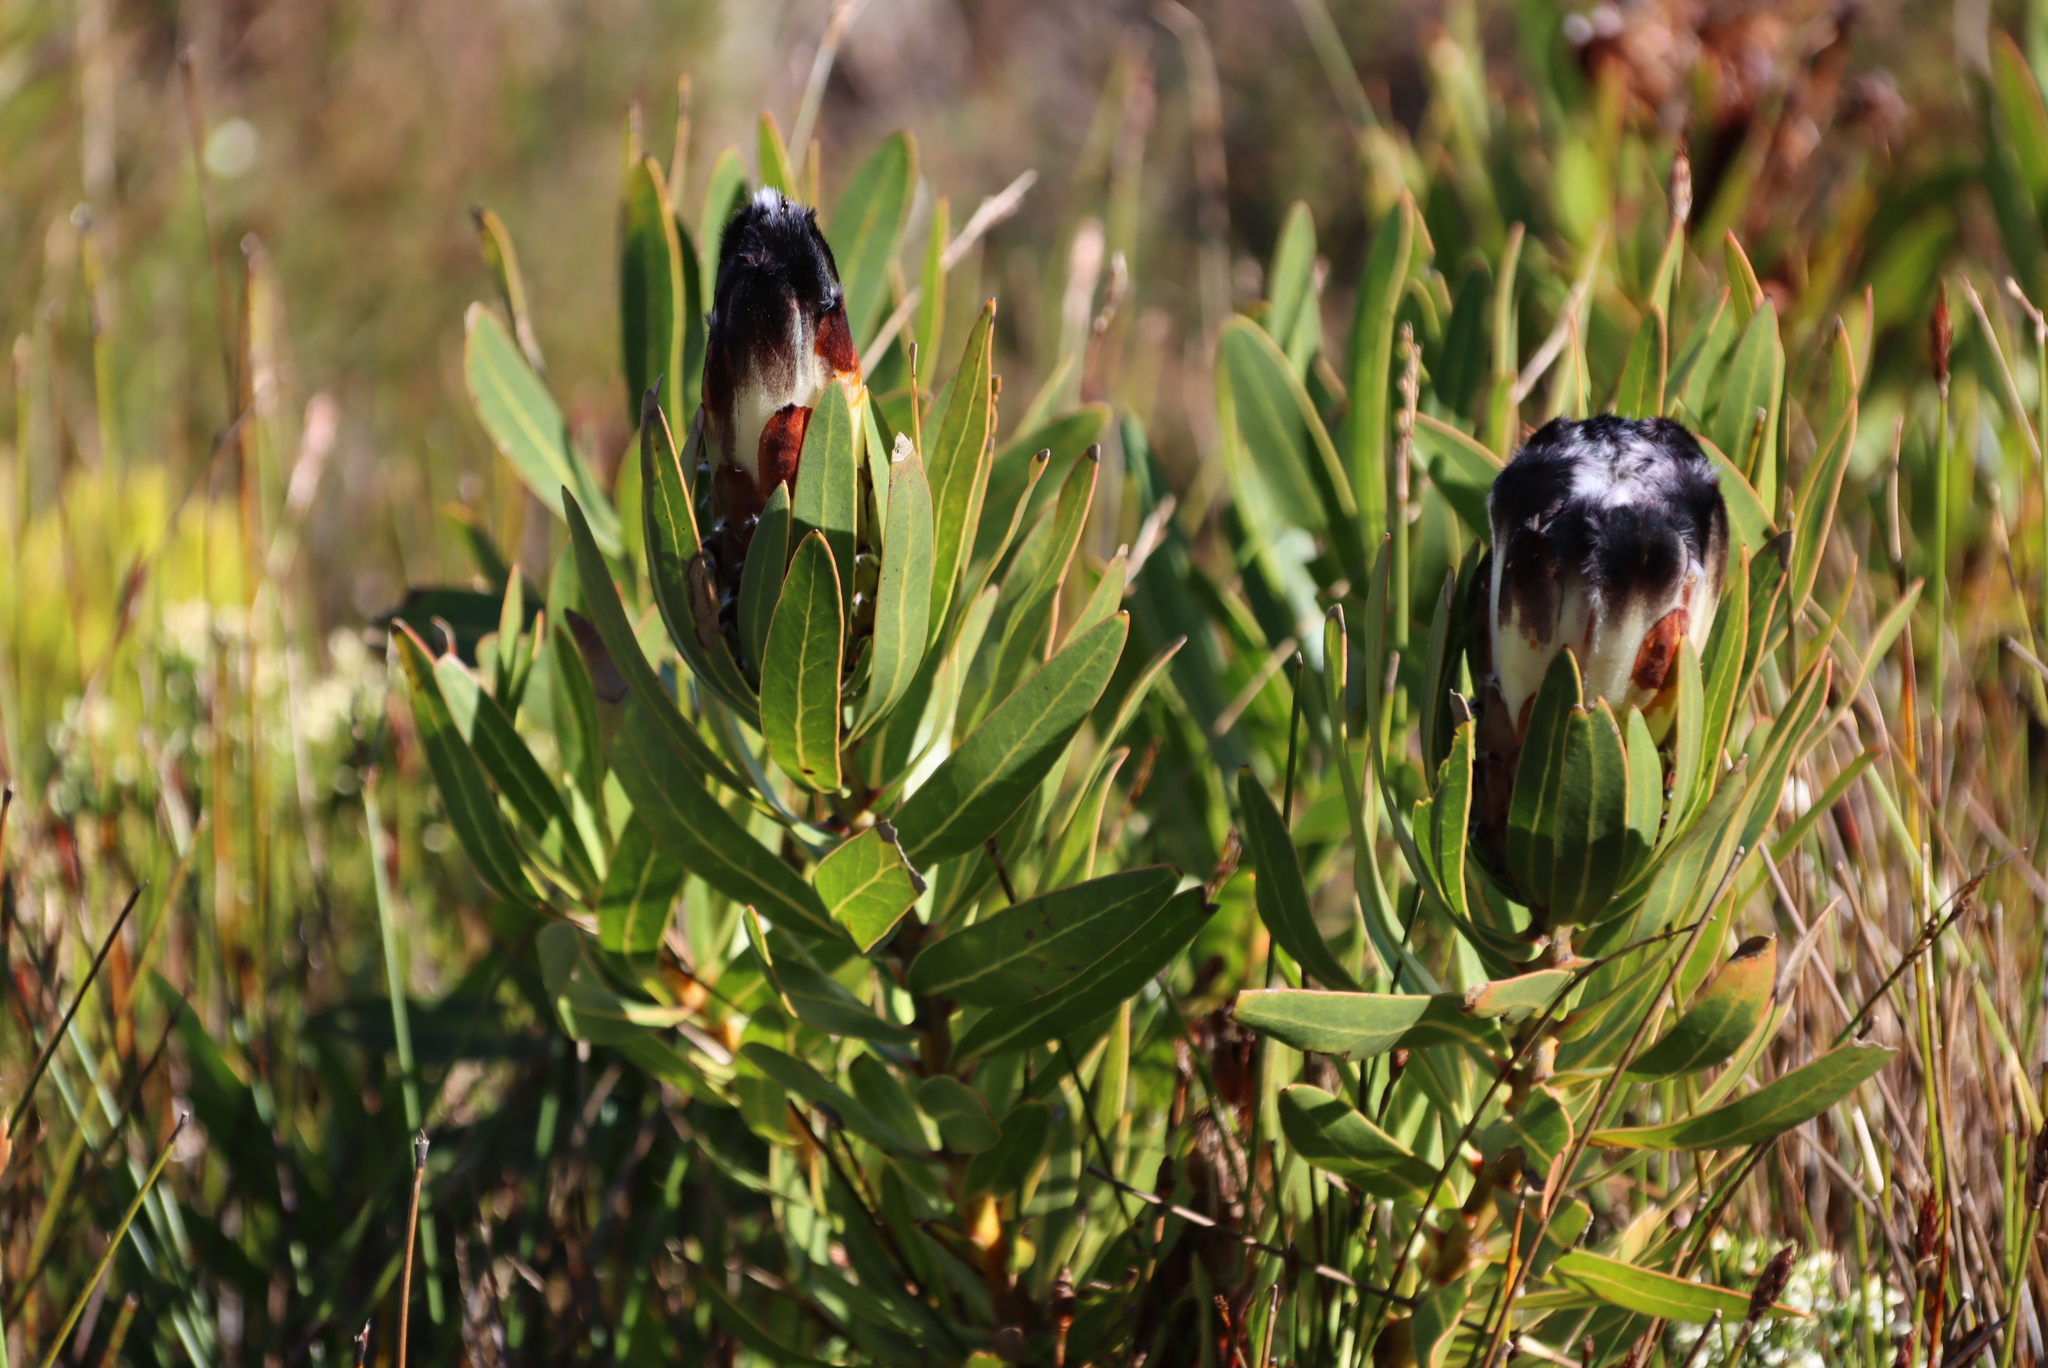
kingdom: Plantae
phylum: Tracheophyta
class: Magnoliopsida
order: Proteales
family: Proteaceae
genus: Protea
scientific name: Protea lepidocarpodendron
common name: Black-bearded protea
